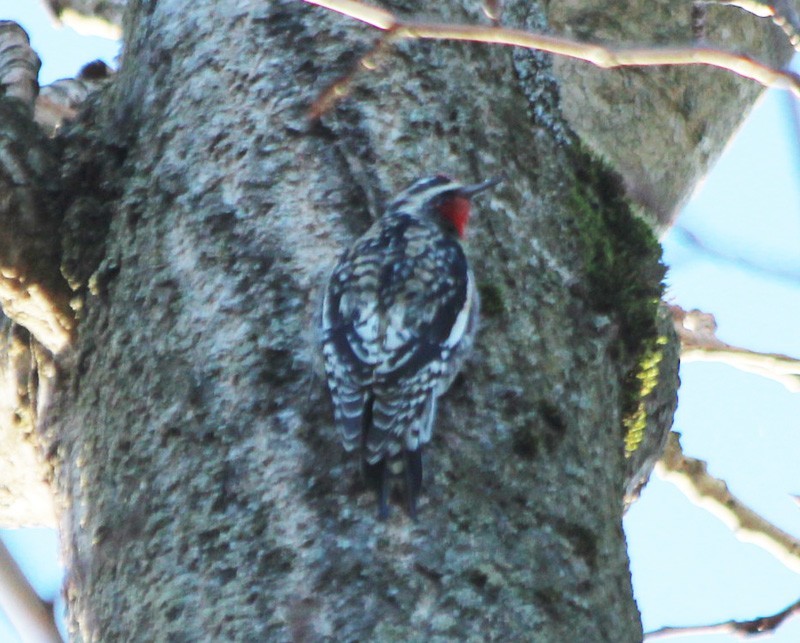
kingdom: Animalia
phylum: Chordata
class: Aves
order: Piciformes
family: Picidae
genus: Sphyrapicus
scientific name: Sphyrapicus varius
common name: Yellow-bellied sapsucker
